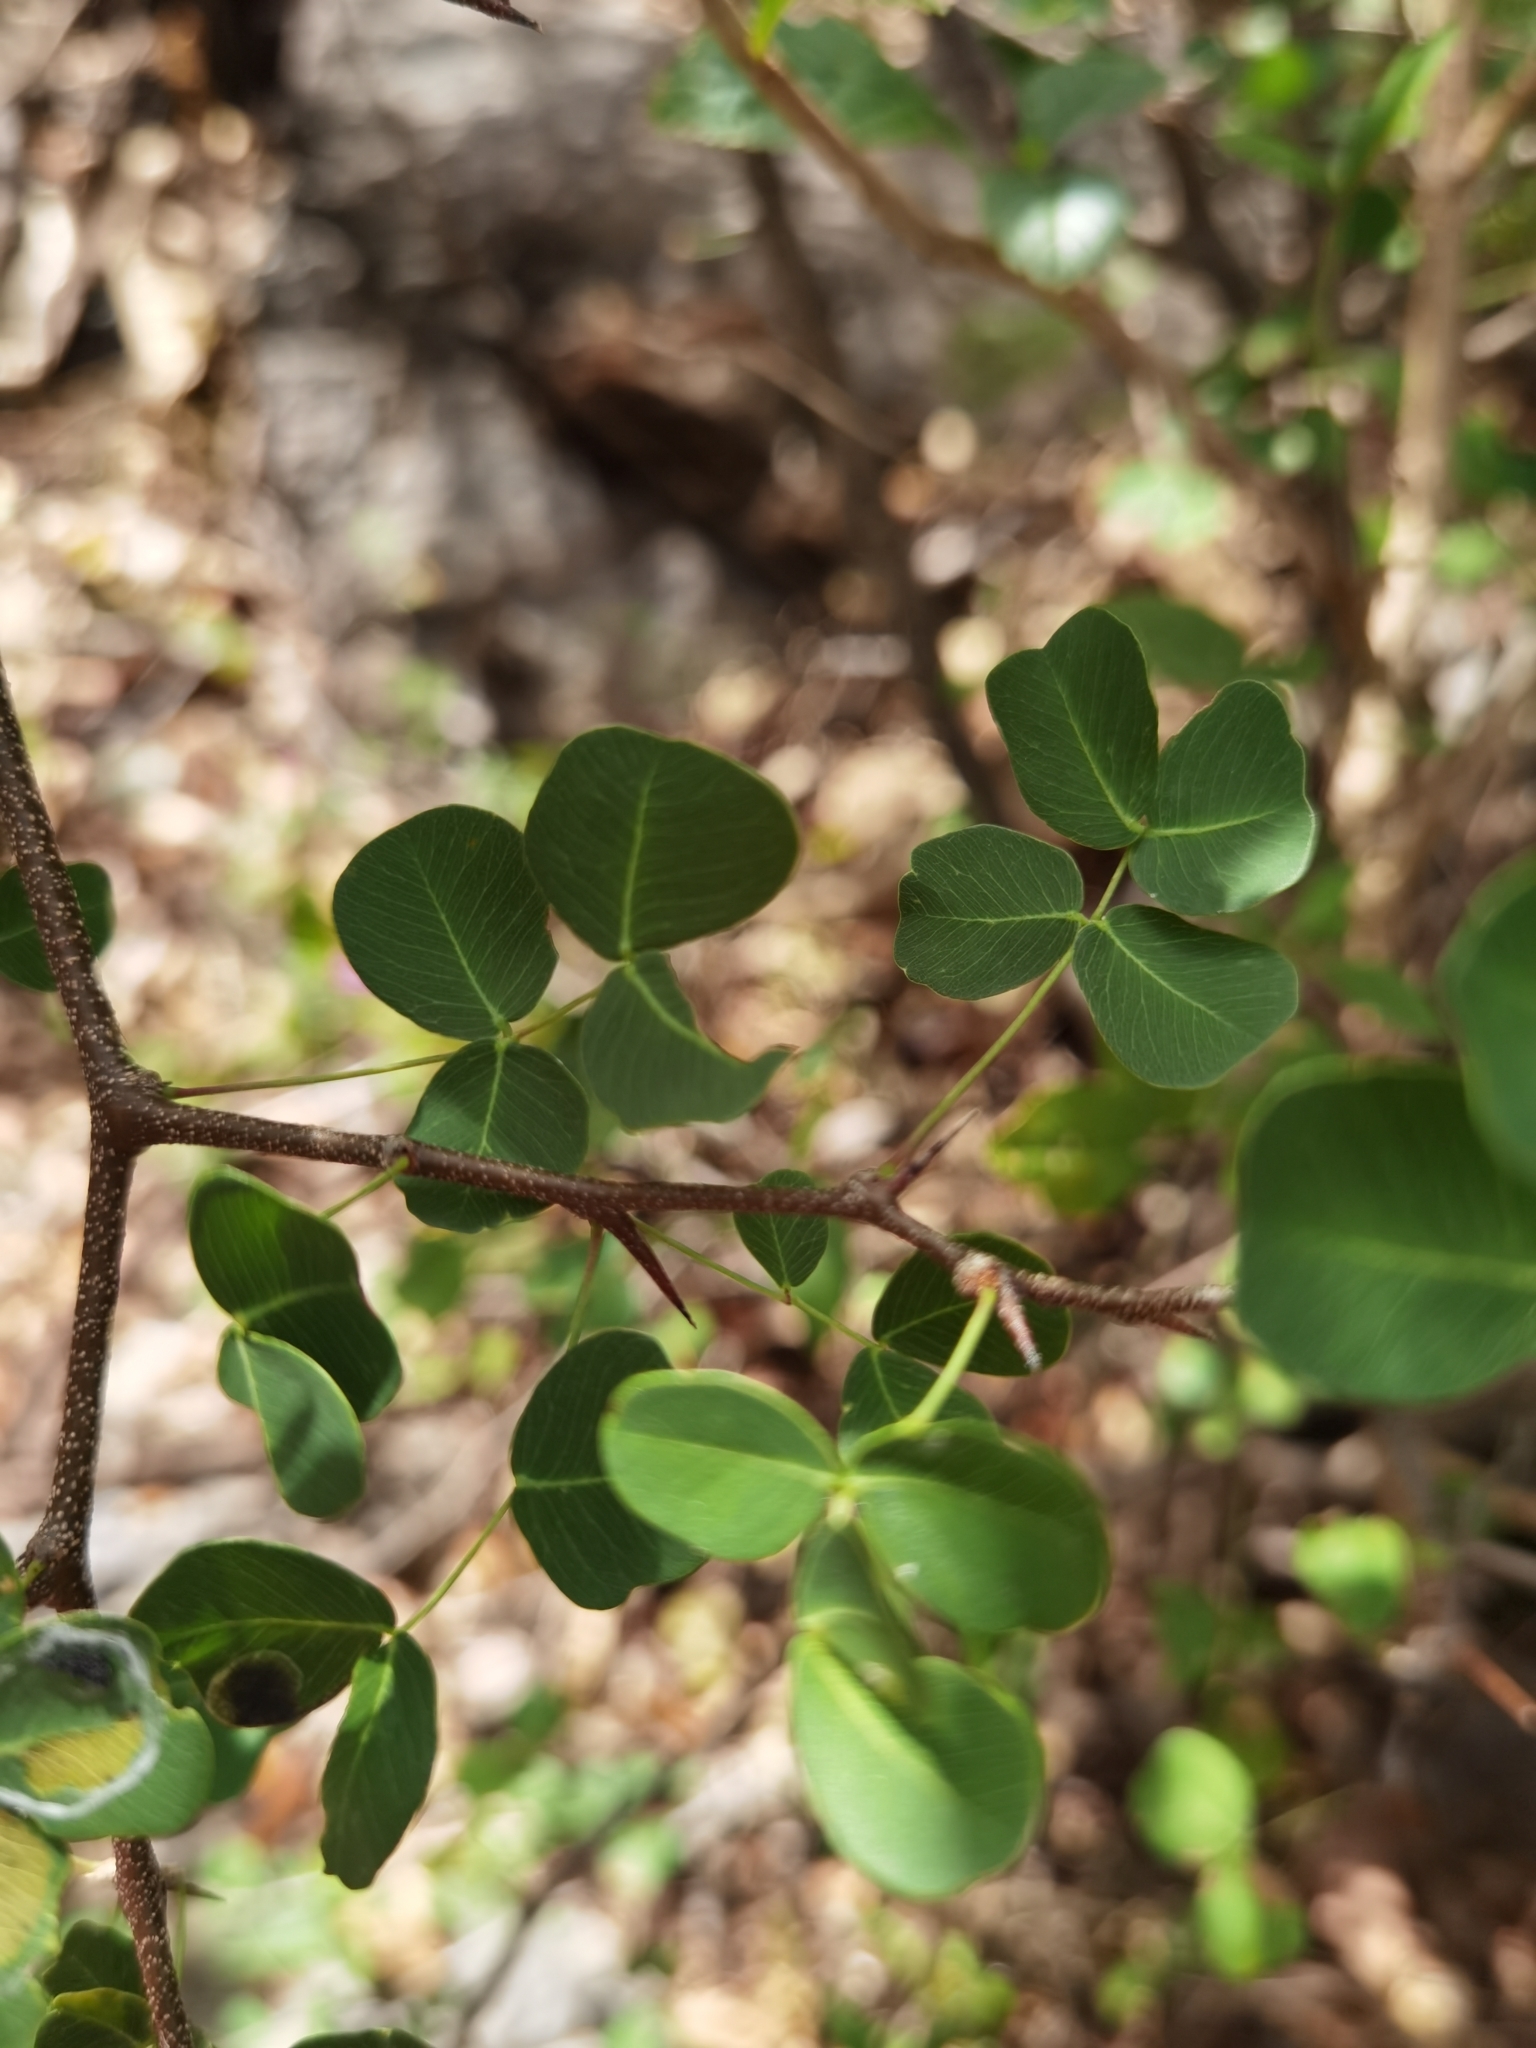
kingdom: Plantae
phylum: Tracheophyta
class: Magnoliopsida
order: Fabales
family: Fabaceae
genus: Haematoxylum
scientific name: Haematoxylum brasiletto
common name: Peachwood
